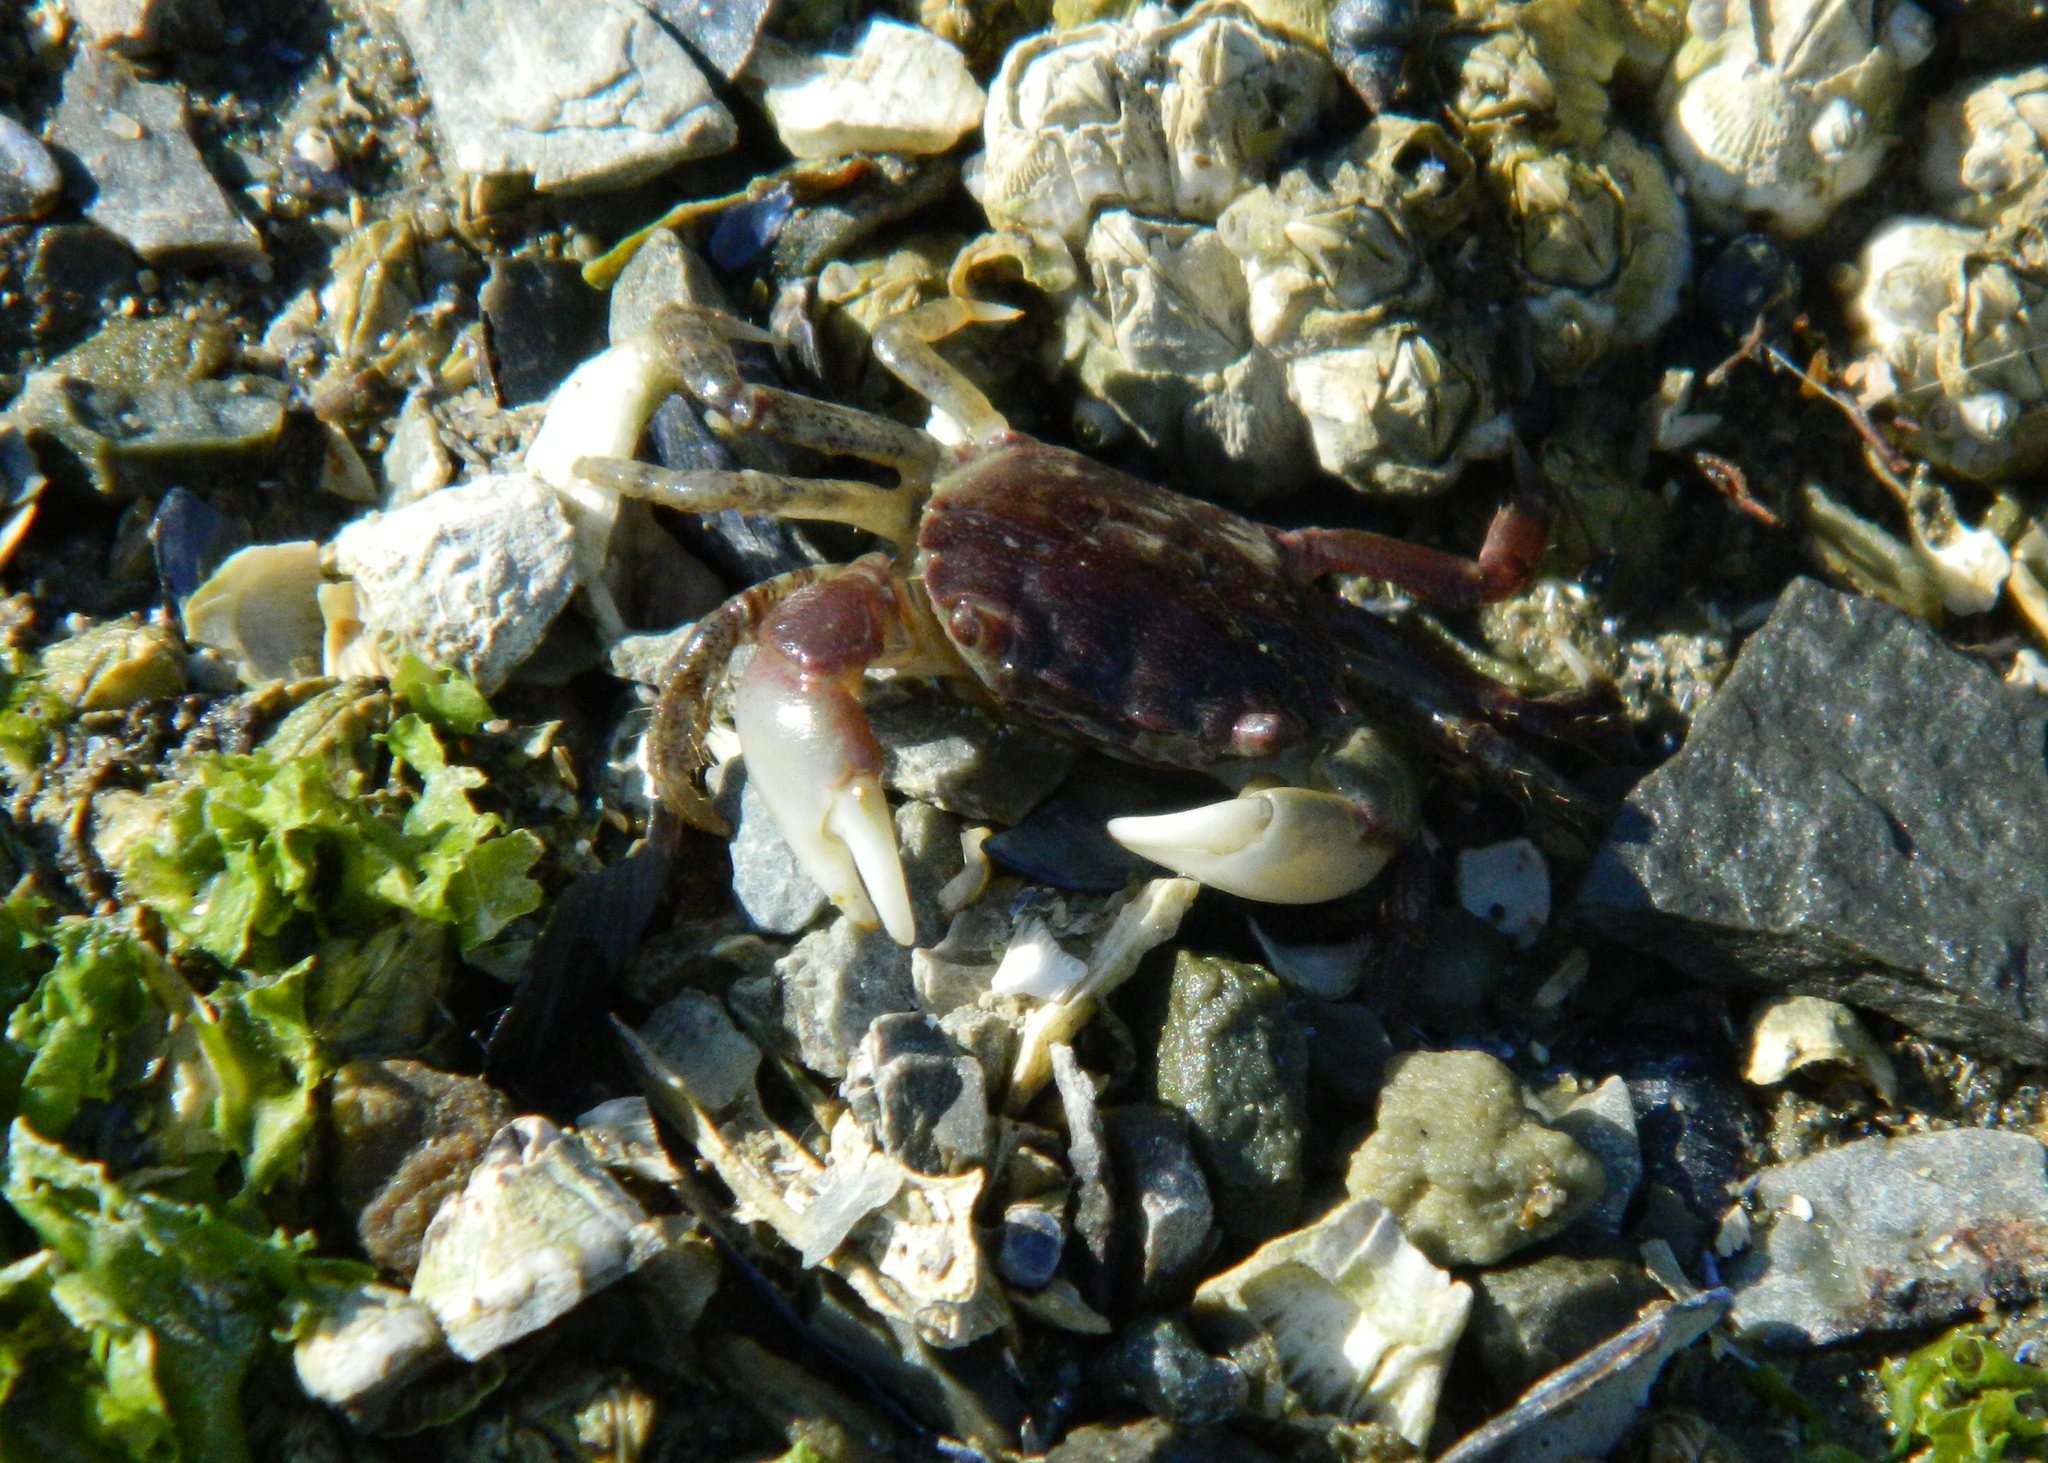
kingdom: Animalia
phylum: Arthropoda
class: Malacostraca
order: Decapoda
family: Varunidae
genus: Hemigrapsus
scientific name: Hemigrapsus oregonensis
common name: Yellow shore crab
